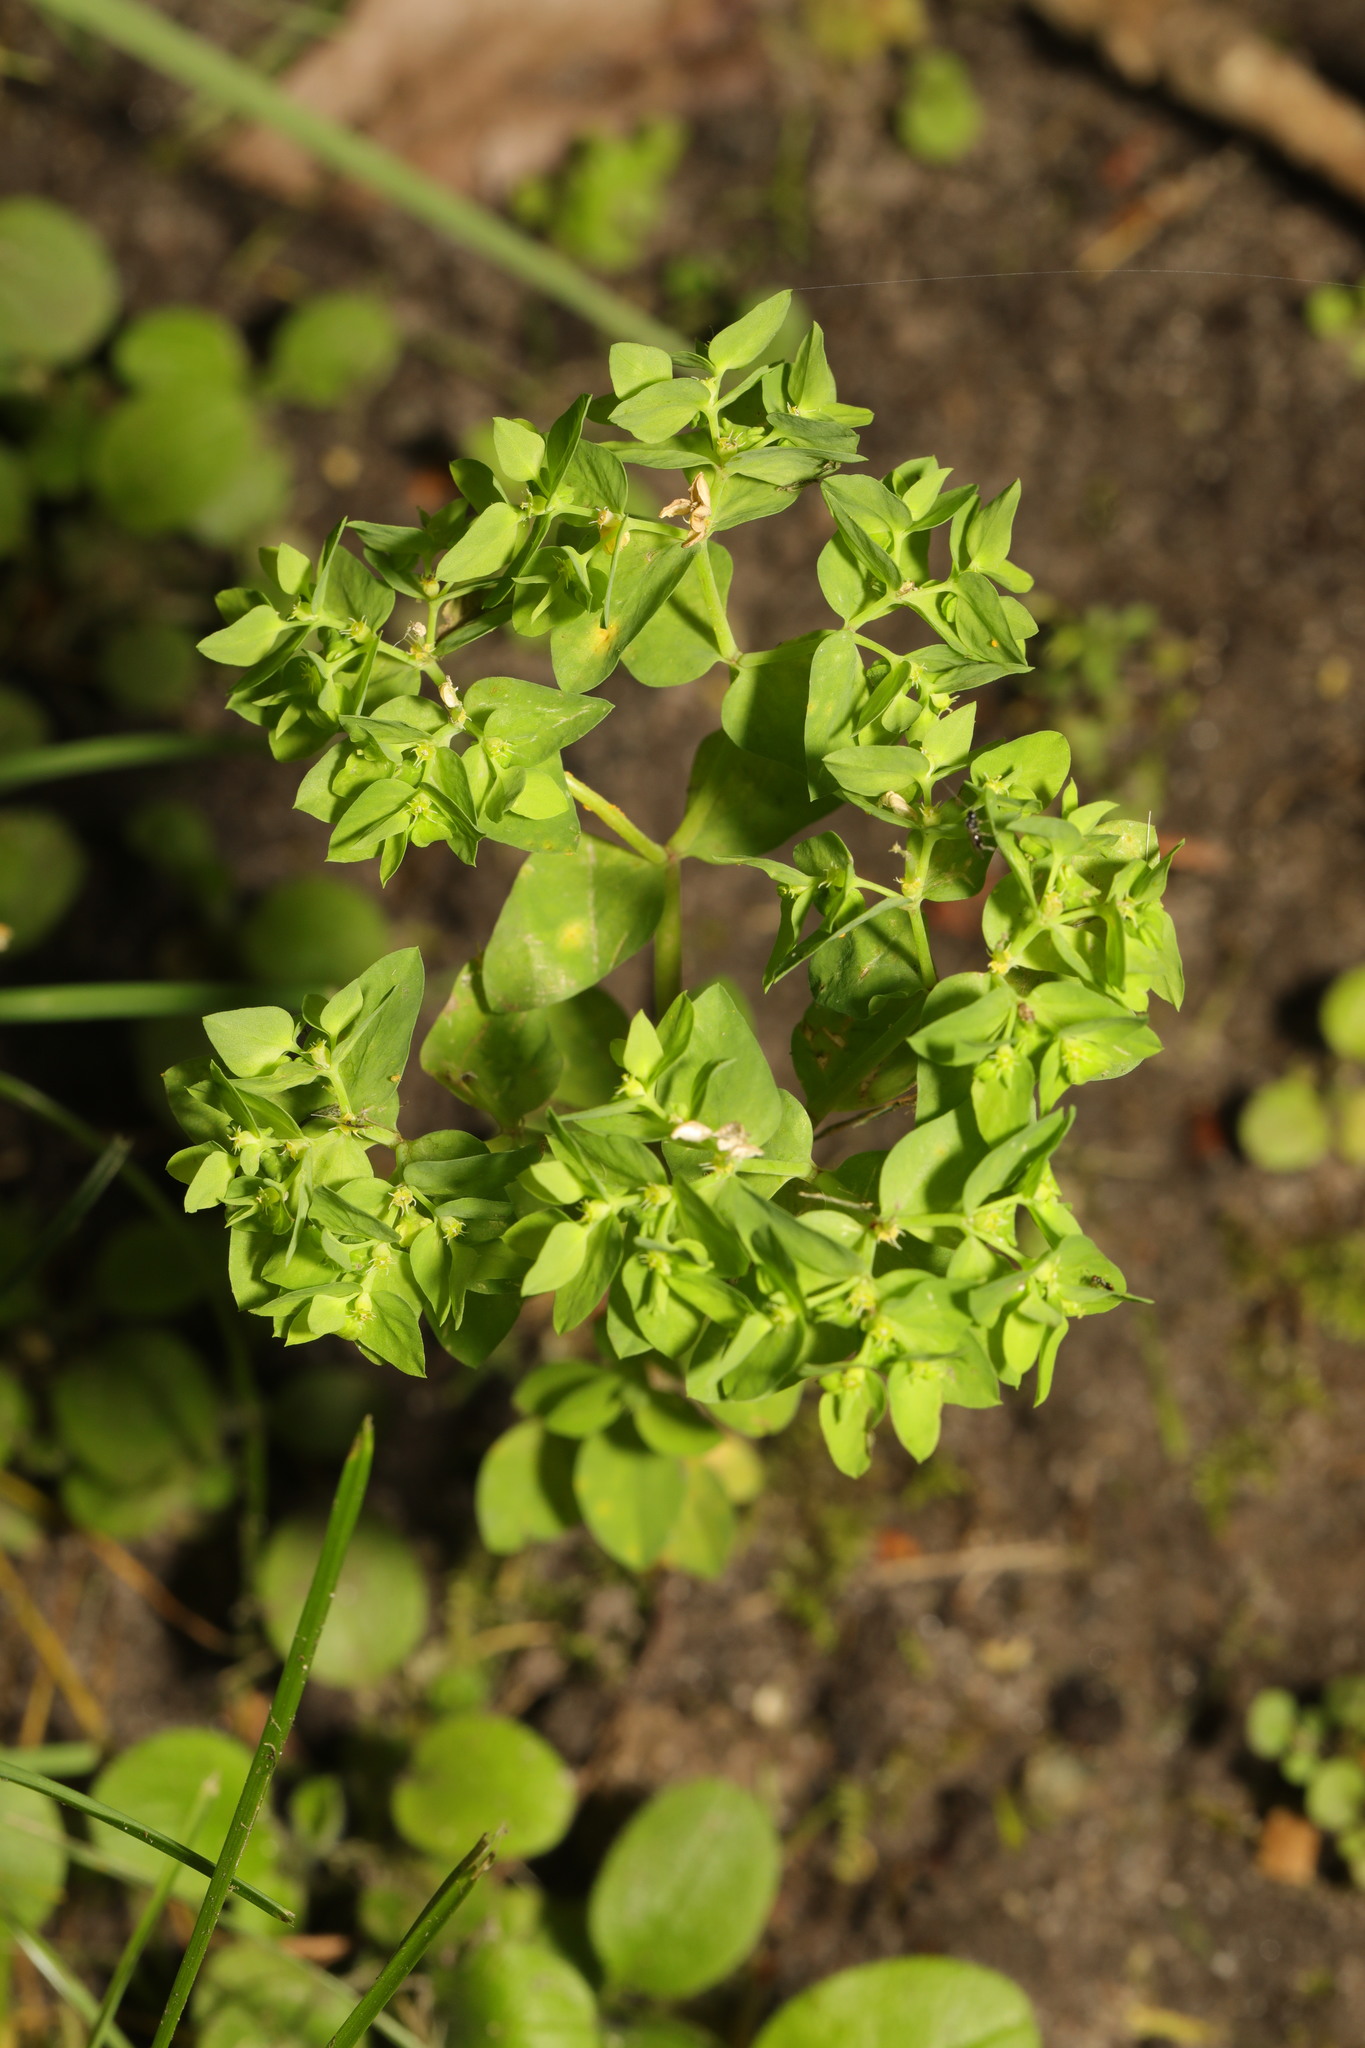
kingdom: Plantae
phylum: Tracheophyta
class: Magnoliopsida
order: Malpighiales
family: Euphorbiaceae
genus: Euphorbia
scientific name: Euphorbia peplus
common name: Petty spurge
